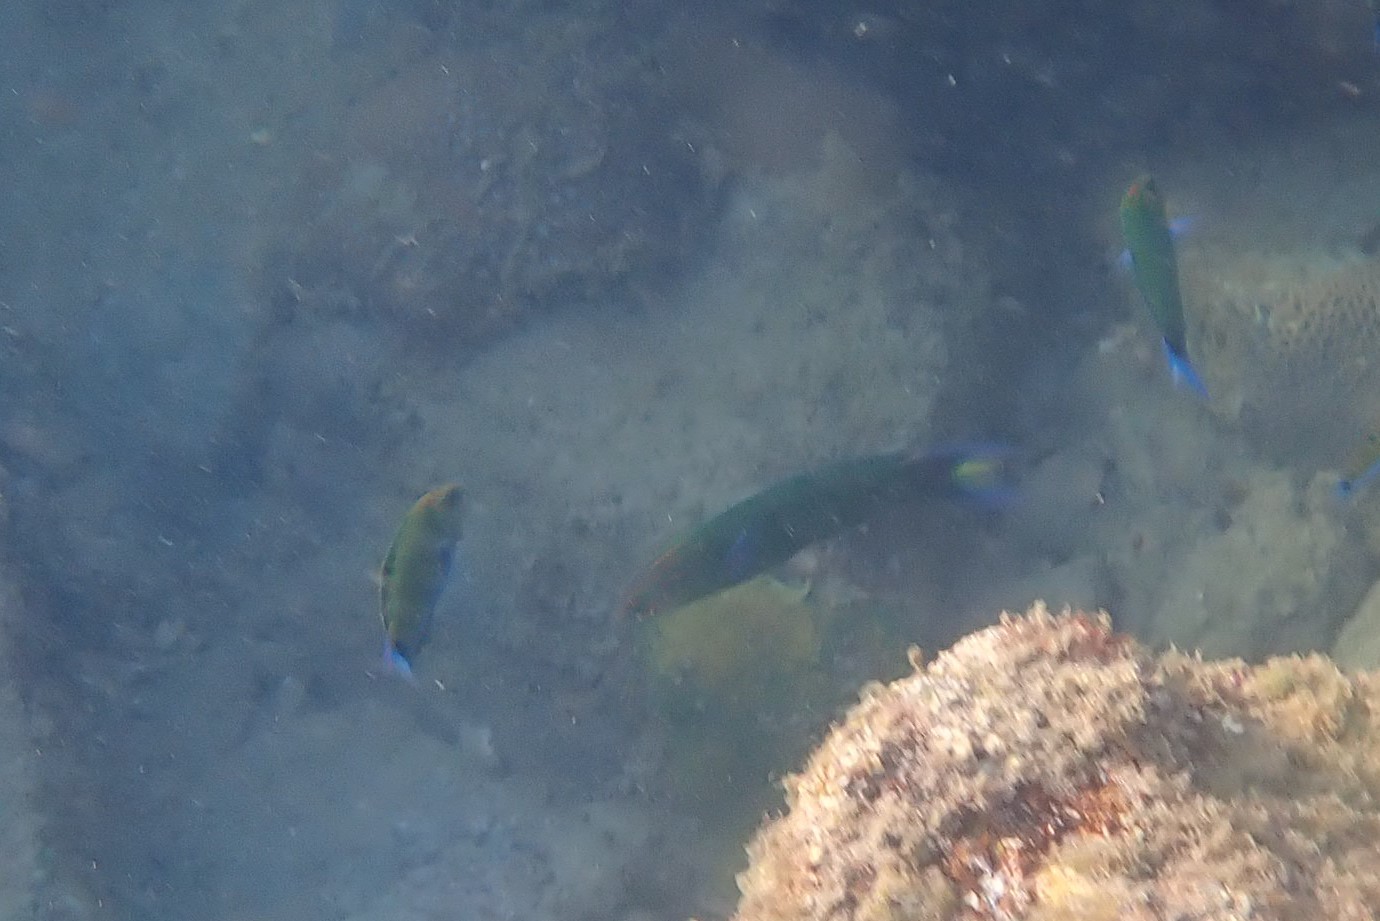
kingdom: Animalia
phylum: Chordata
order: Perciformes
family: Labridae
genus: Thalassoma
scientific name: Thalassoma lunare
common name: Blue wrasse
